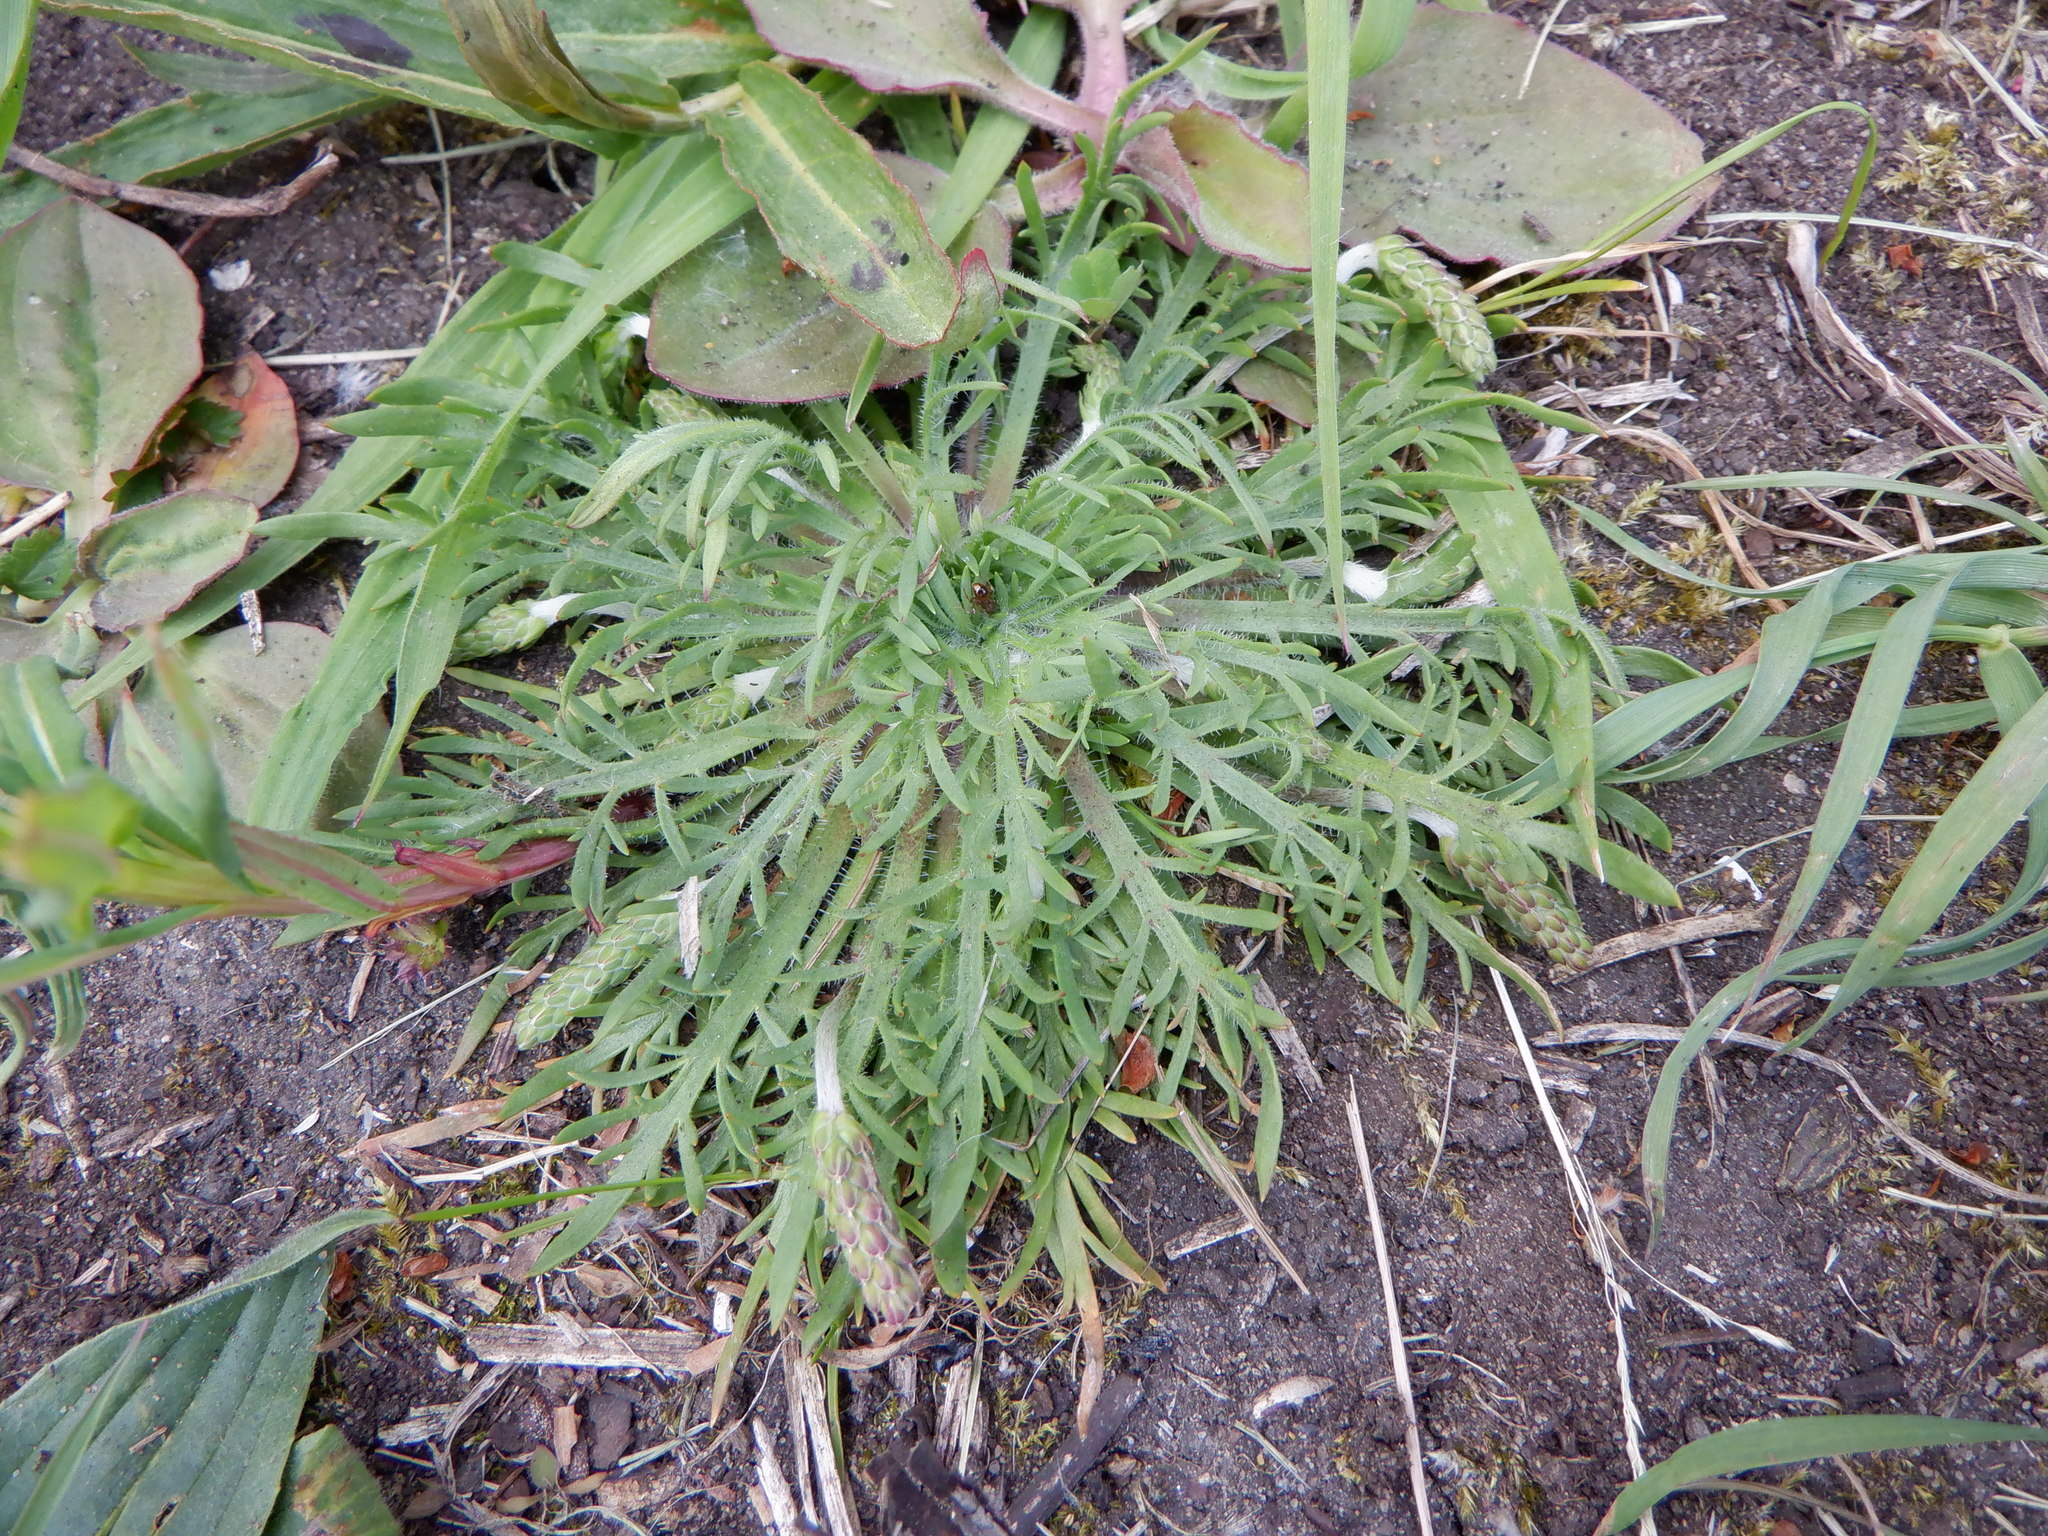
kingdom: Plantae
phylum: Tracheophyta
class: Magnoliopsida
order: Lamiales
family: Plantaginaceae
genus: Plantago
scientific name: Plantago coronopus
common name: Buck's-horn plantain
